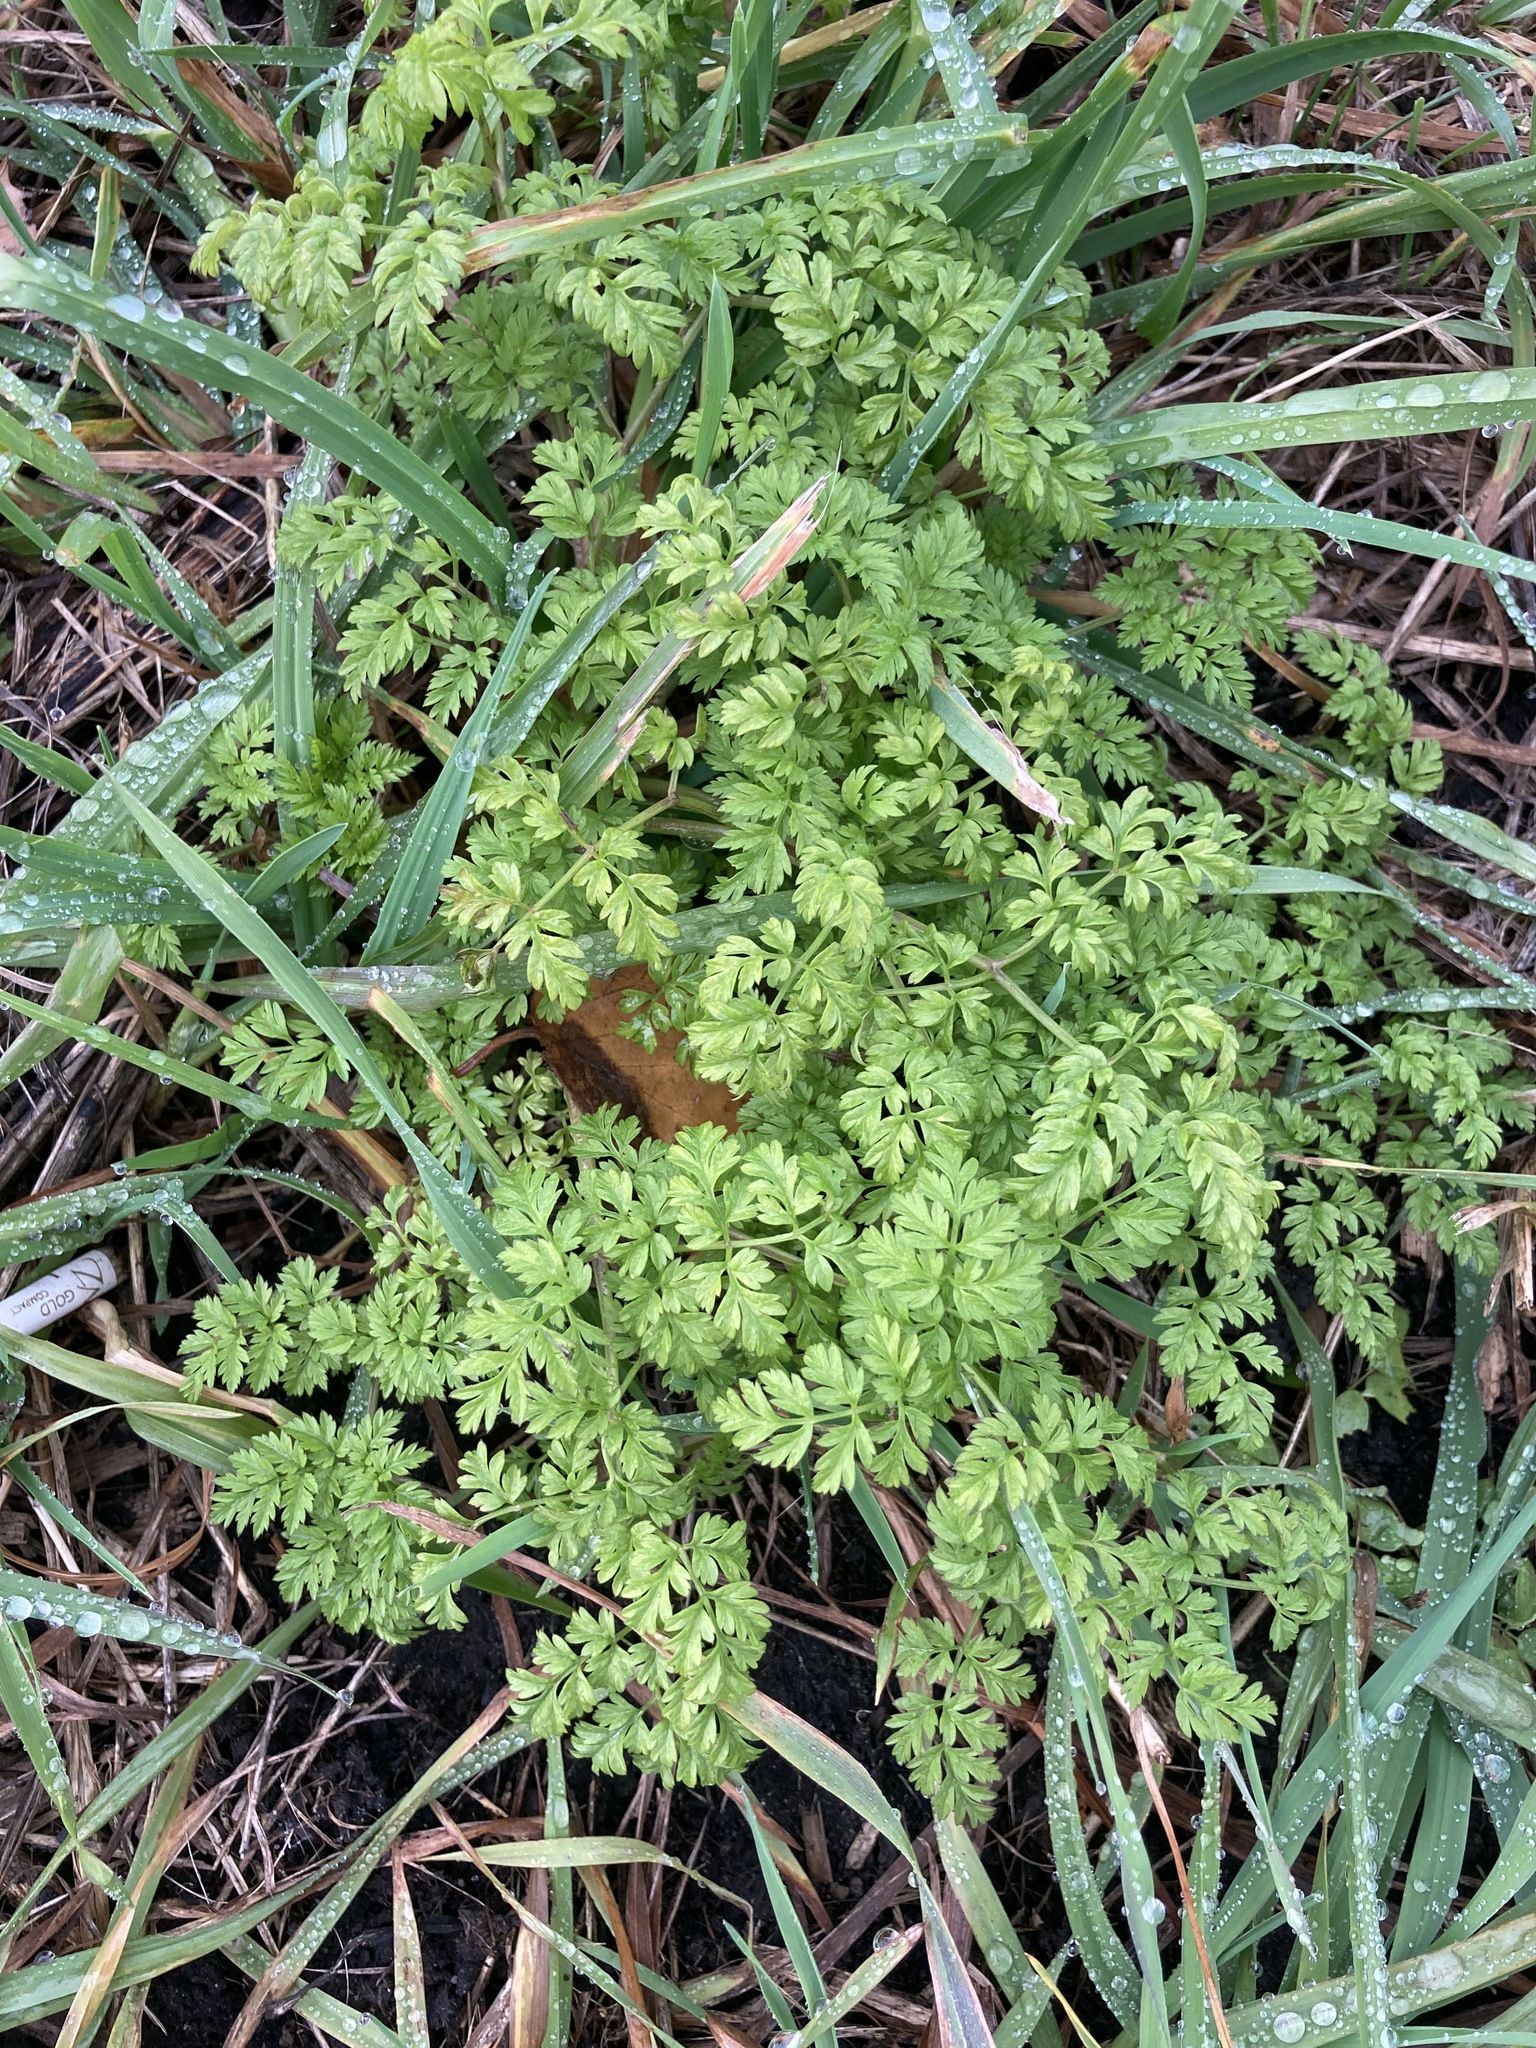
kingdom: Plantae
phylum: Tracheophyta
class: Magnoliopsida
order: Apiales
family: Apiaceae
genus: Anthriscus
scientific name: Anthriscus sylvestris
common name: Cow parsley
